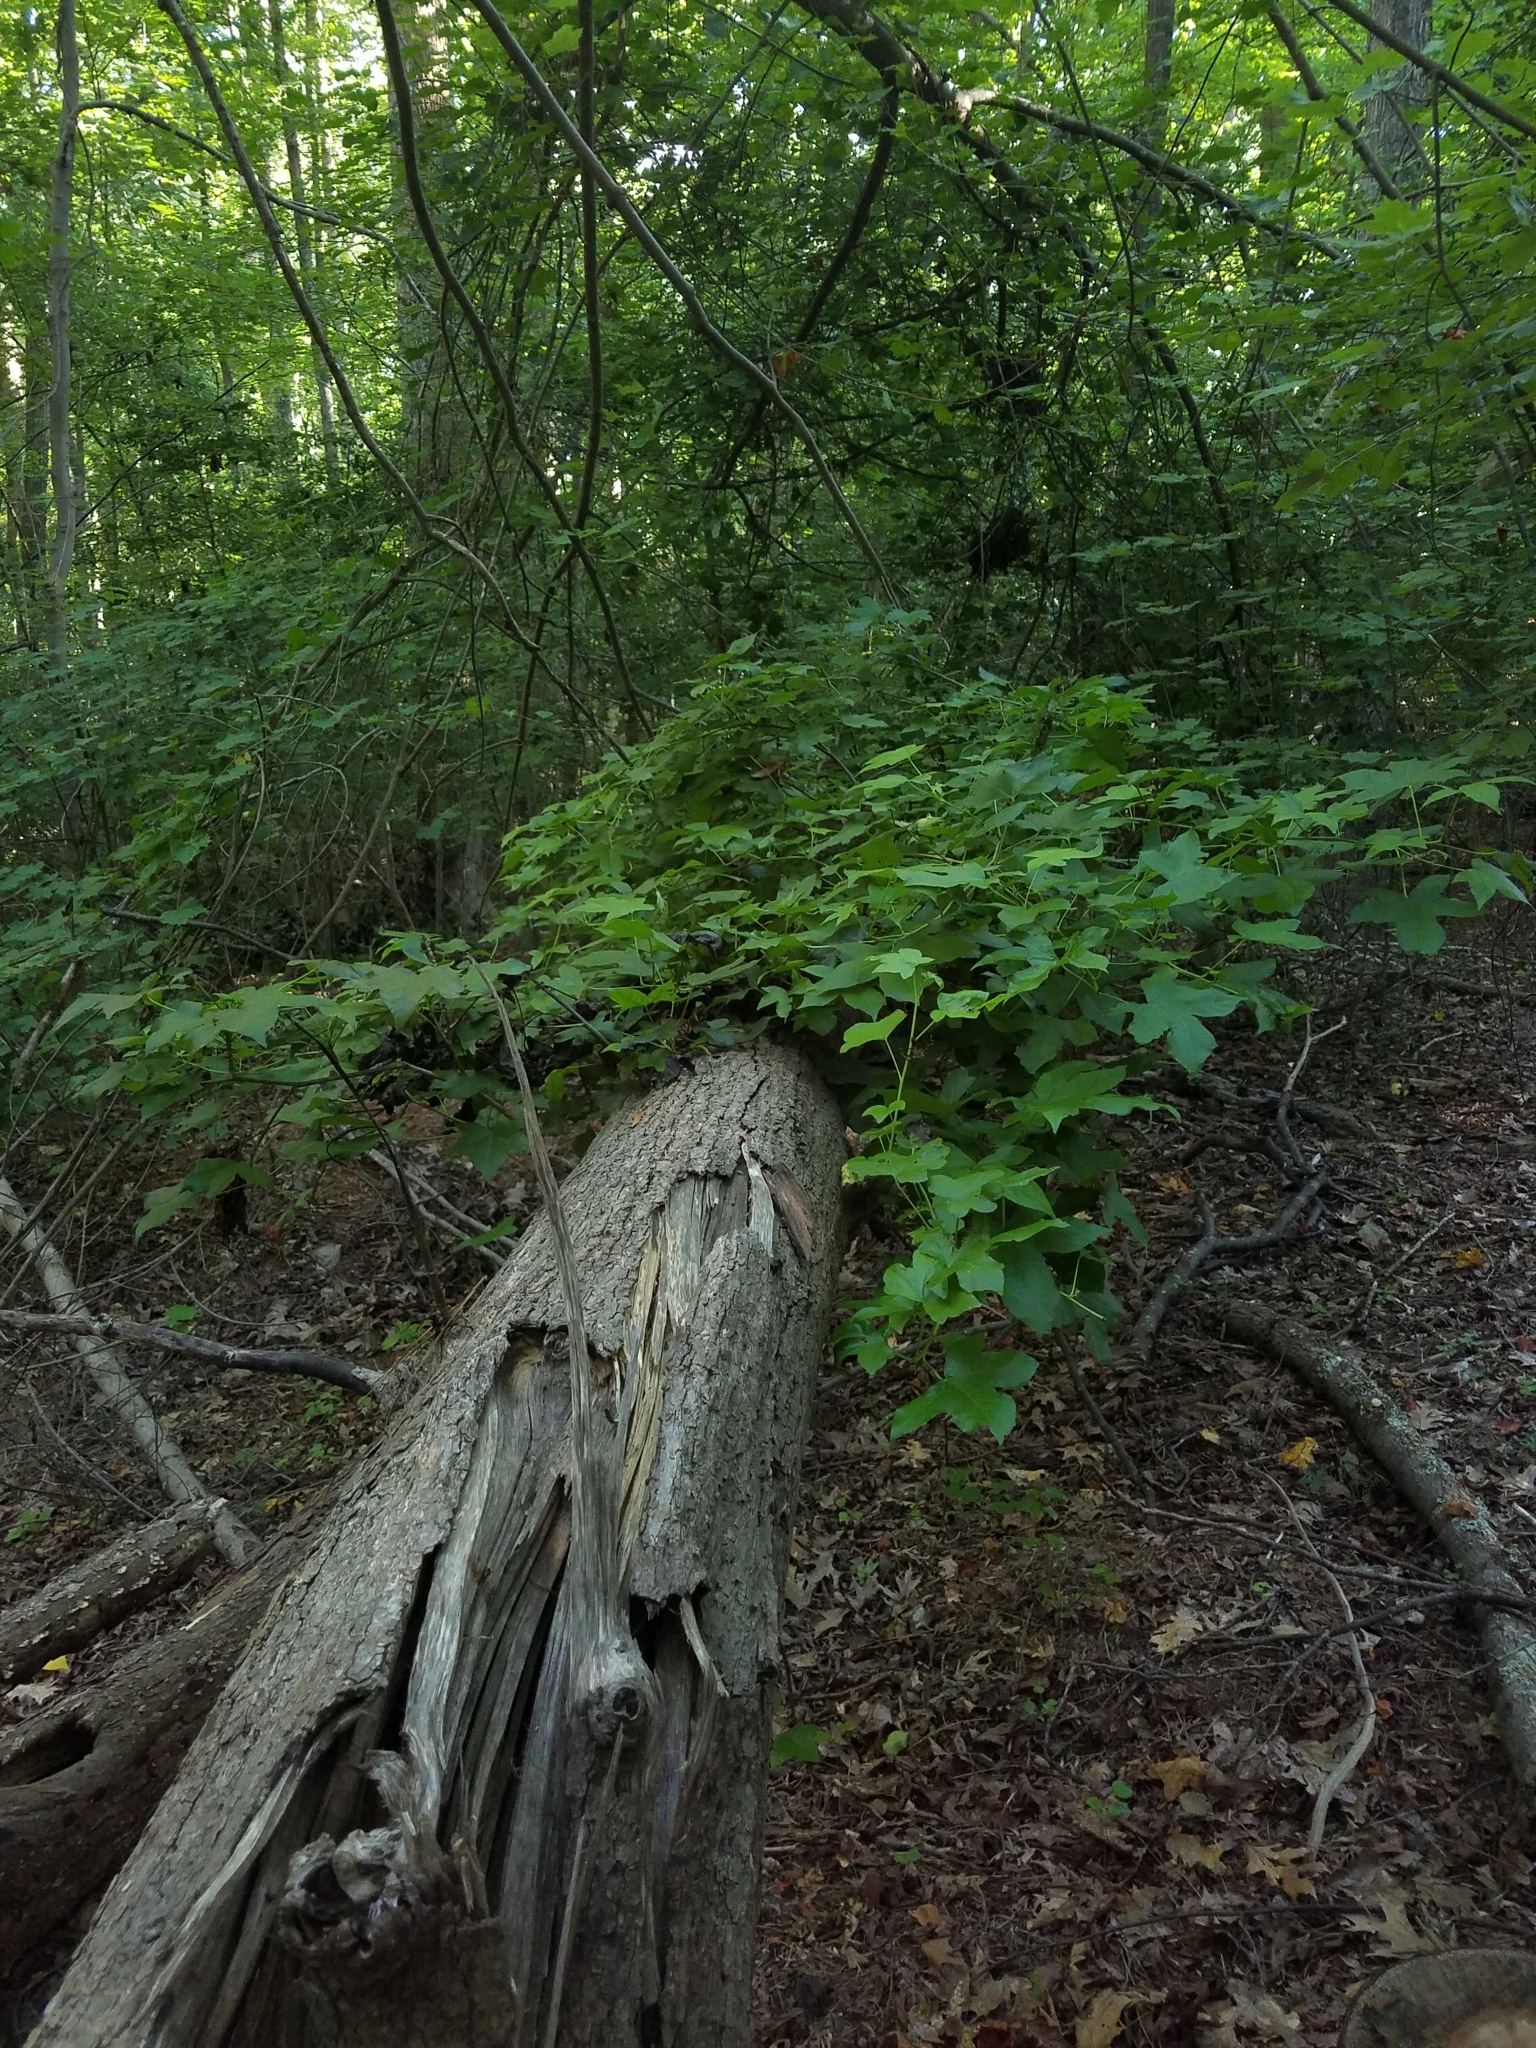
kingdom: Plantae
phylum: Tracheophyta
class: Magnoliopsida
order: Saxifragales
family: Altingiaceae
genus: Liquidambar
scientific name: Liquidambar styraciflua
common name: Sweet gum
